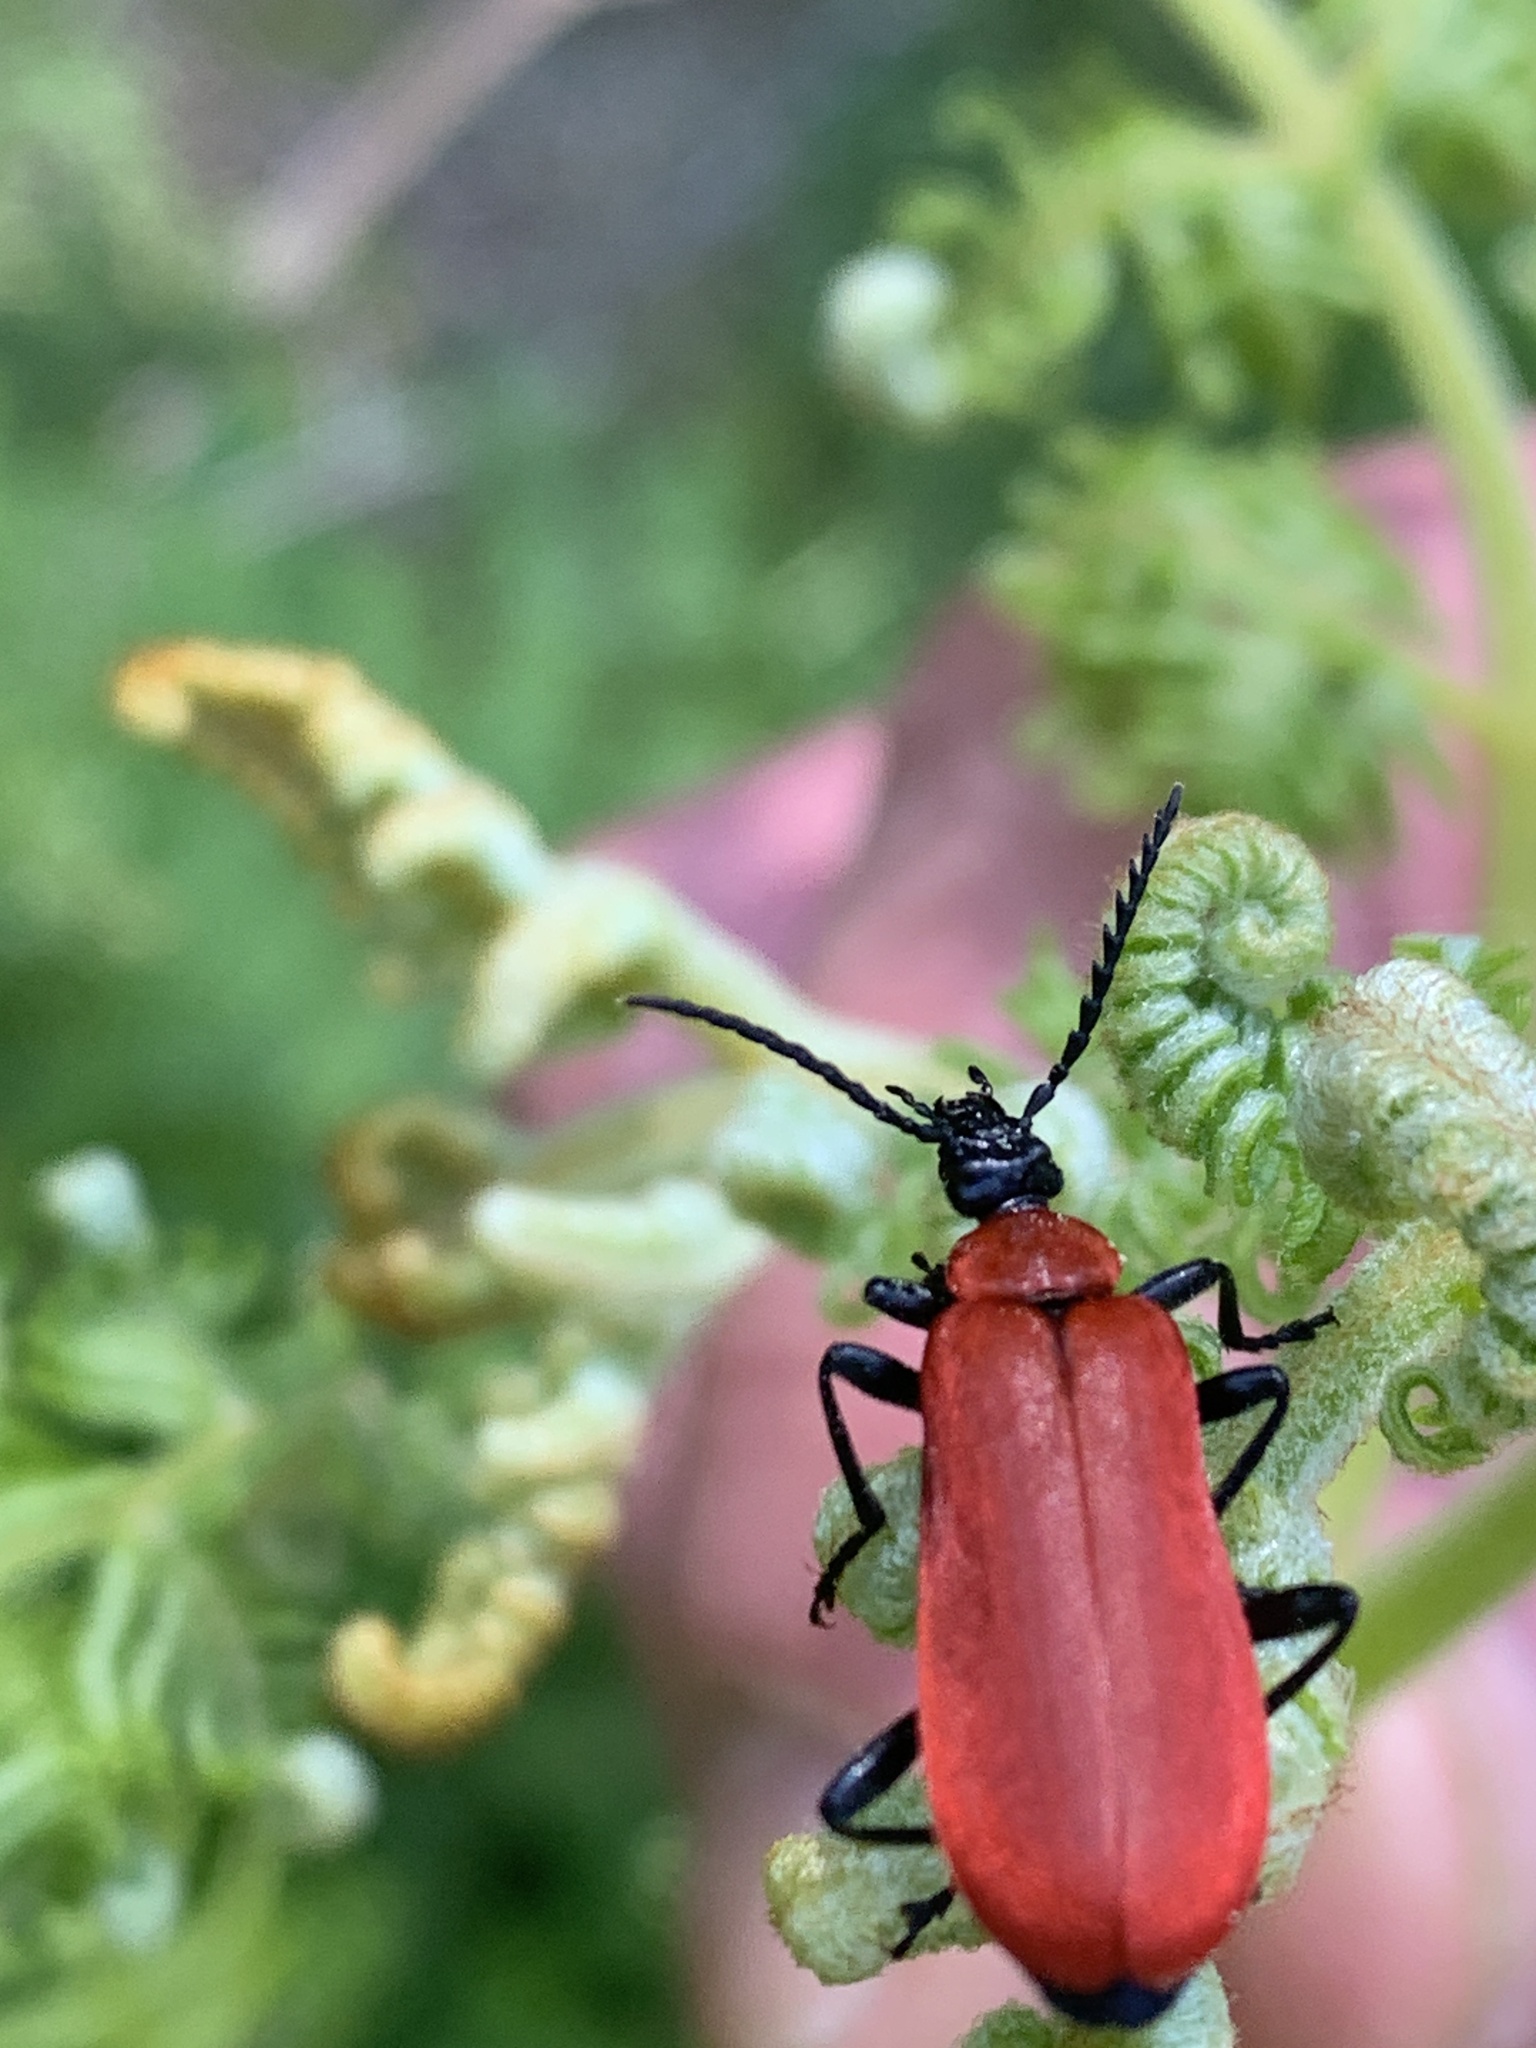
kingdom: Animalia
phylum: Arthropoda
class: Insecta
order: Coleoptera
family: Pyrochroidae
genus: Pyrochroa
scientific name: Pyrochroa coccinea
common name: Black-headed cardinal beetle
